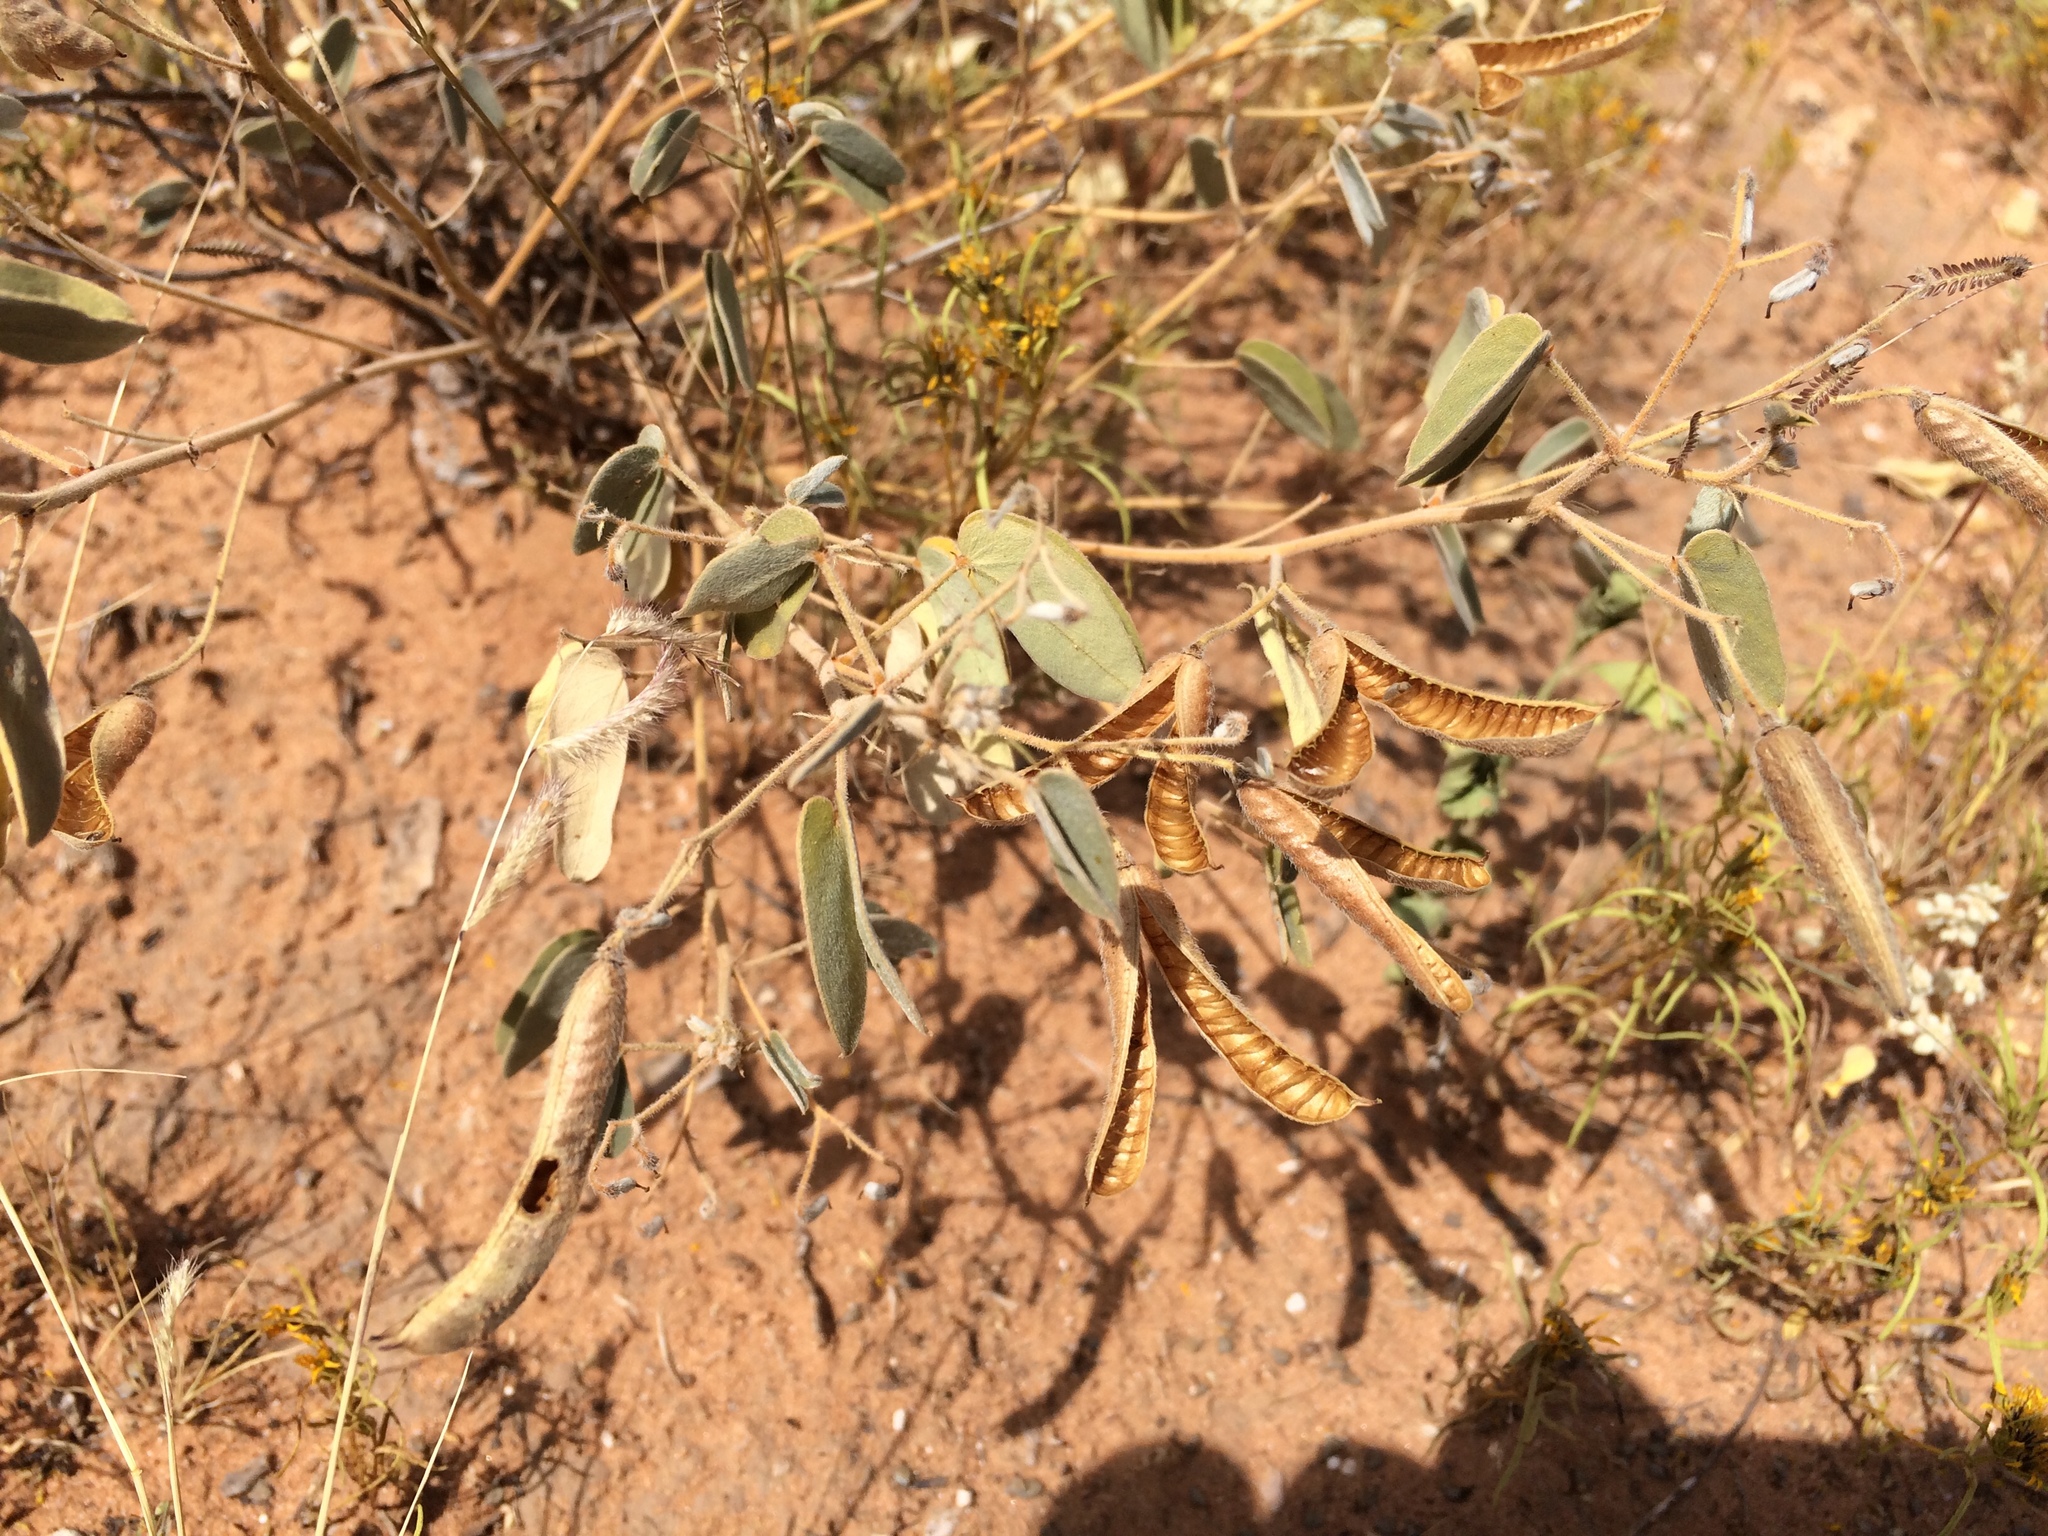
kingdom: Plantae
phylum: Tracheophyta
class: Magnoliopsida
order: Fabales
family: Fabaceae
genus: Senna
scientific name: Senna bauhinioides
